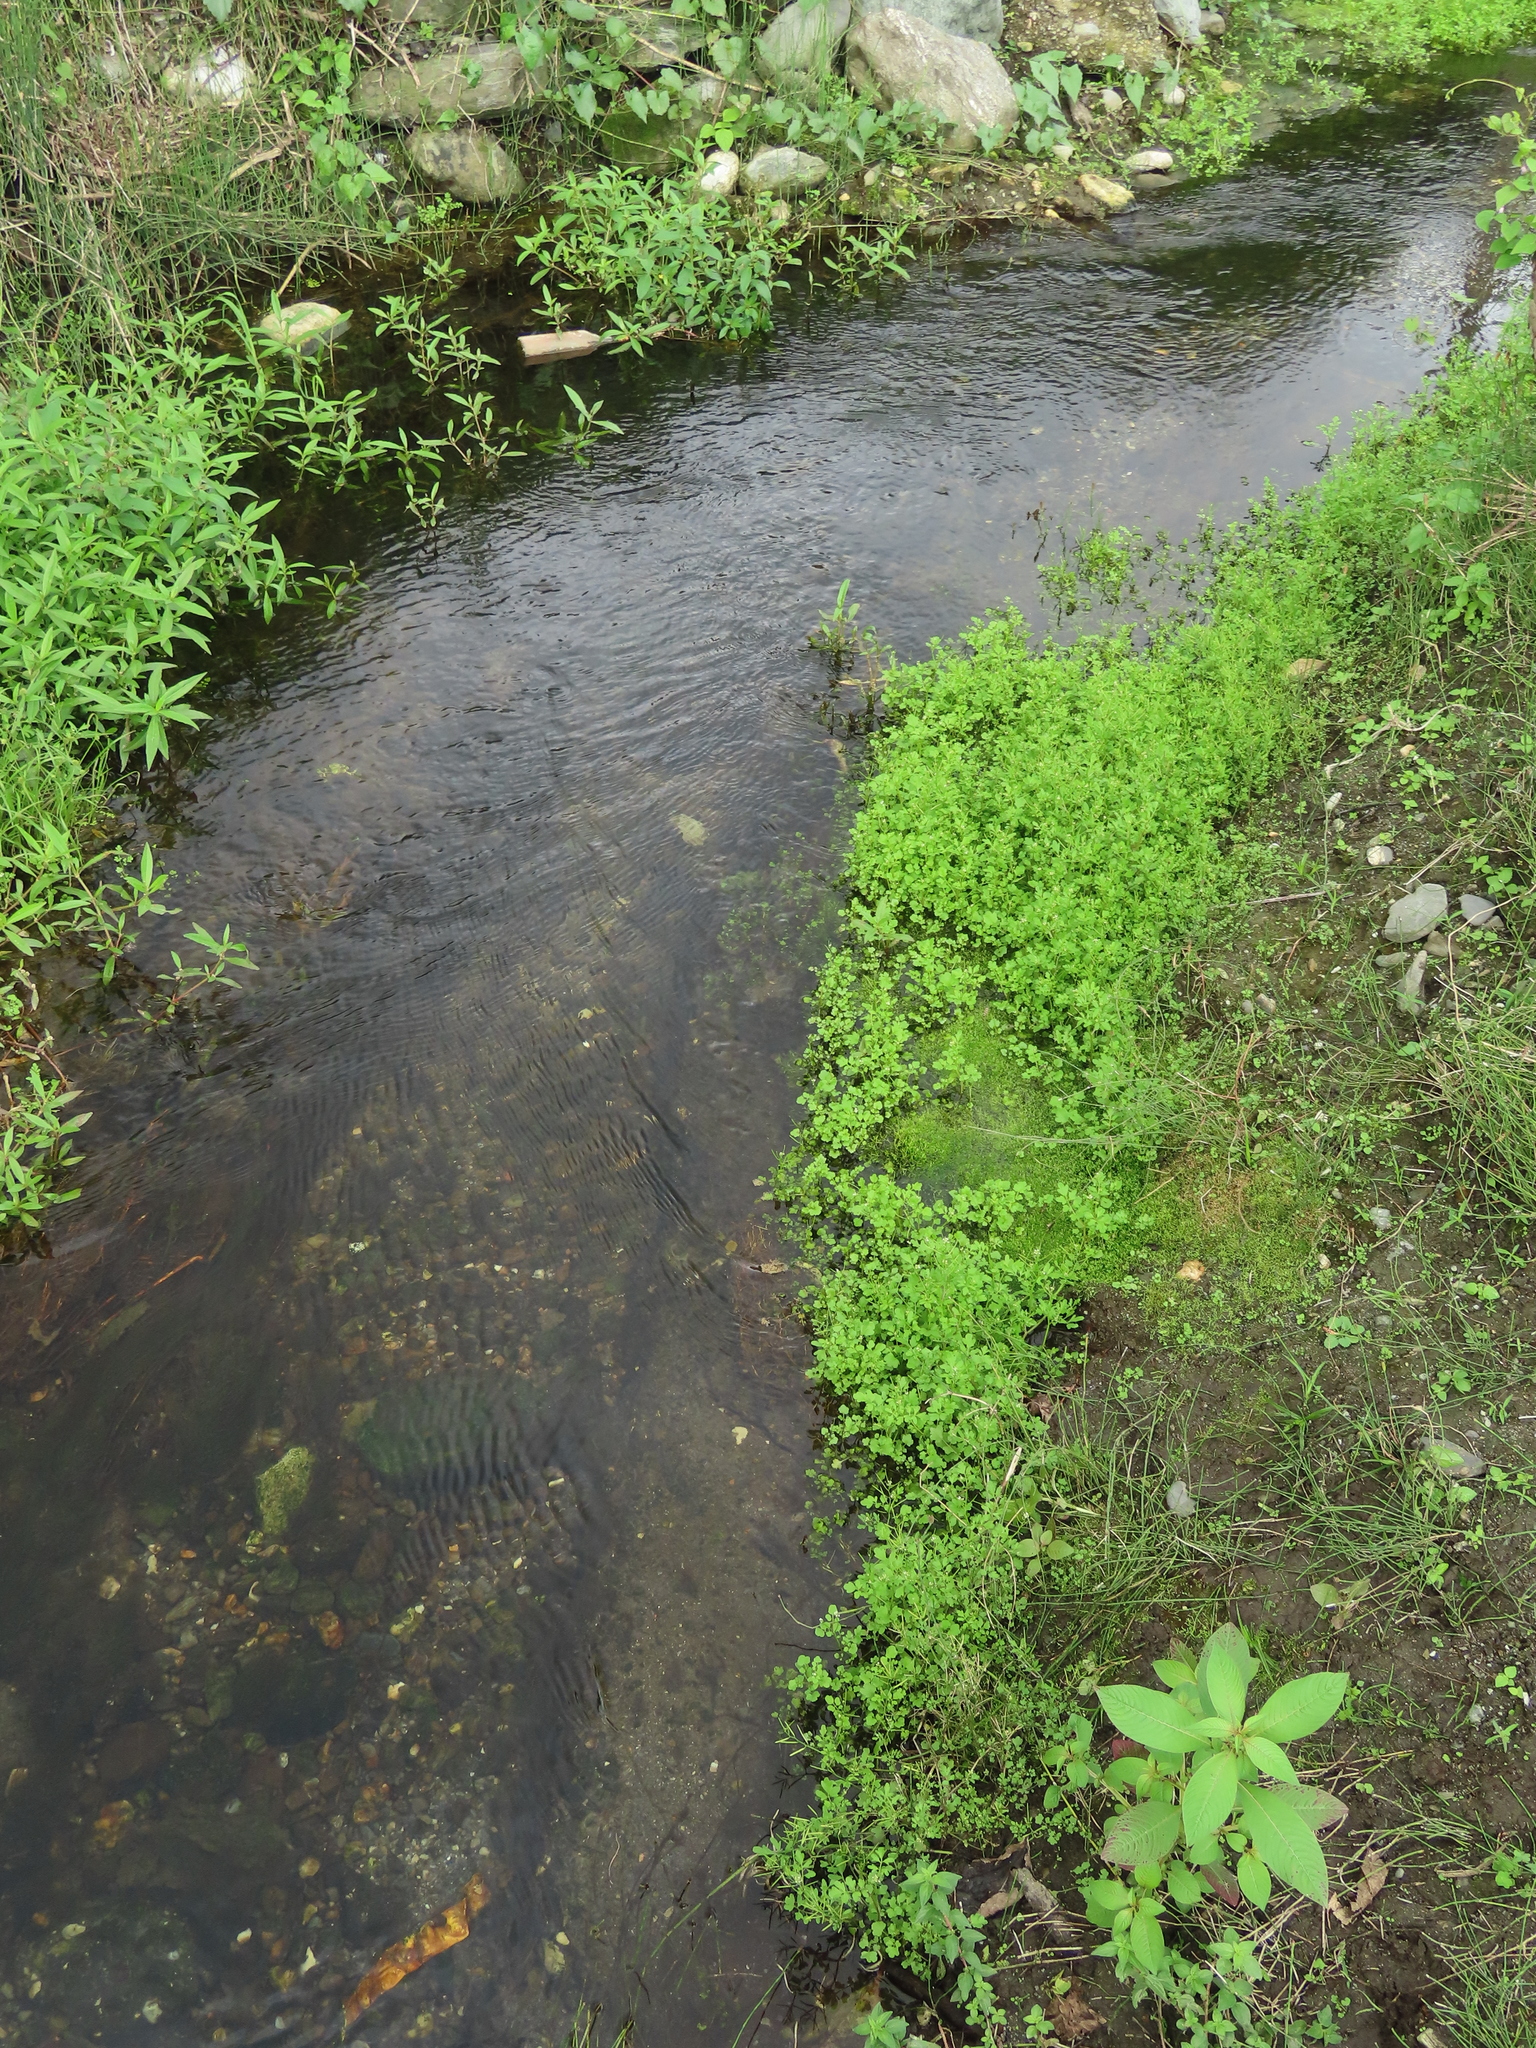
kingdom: Plantae
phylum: Marchantiophyta
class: Marchantiopsida
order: Marchantiales
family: Ricciaceae
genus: Riccia
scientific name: Riccia fluitans
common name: Floating crystalwort
